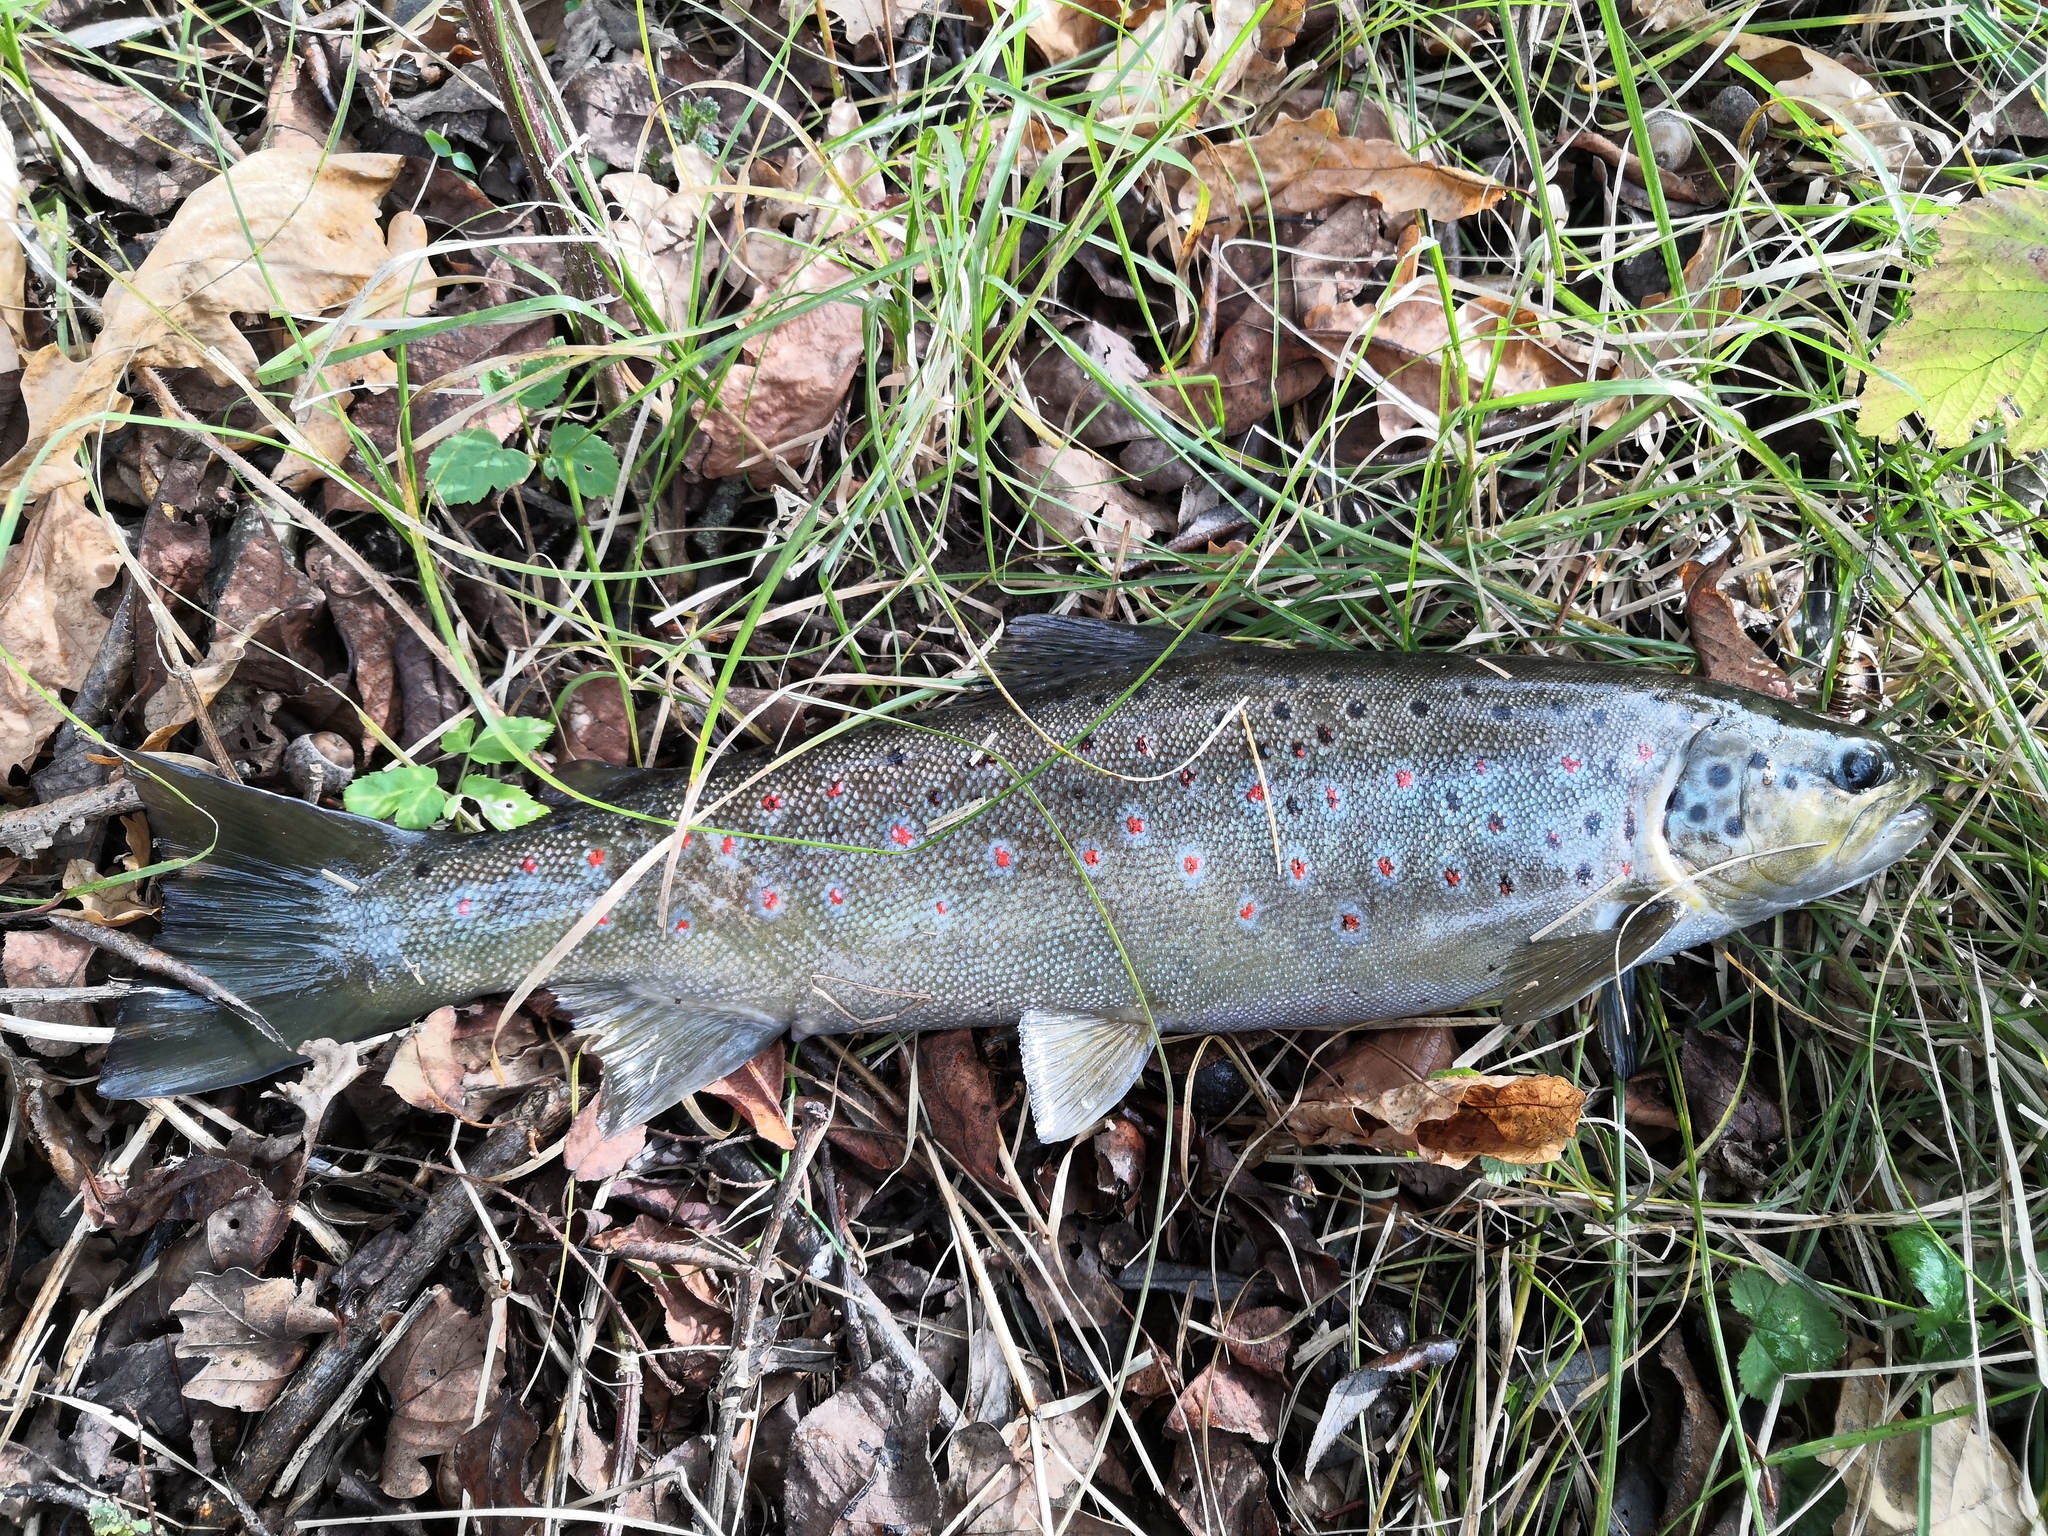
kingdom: Animalia
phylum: Chordata
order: Salmoniformes
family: Salmonidae
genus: Salmo
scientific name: Salmo trutta
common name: Brown trout
